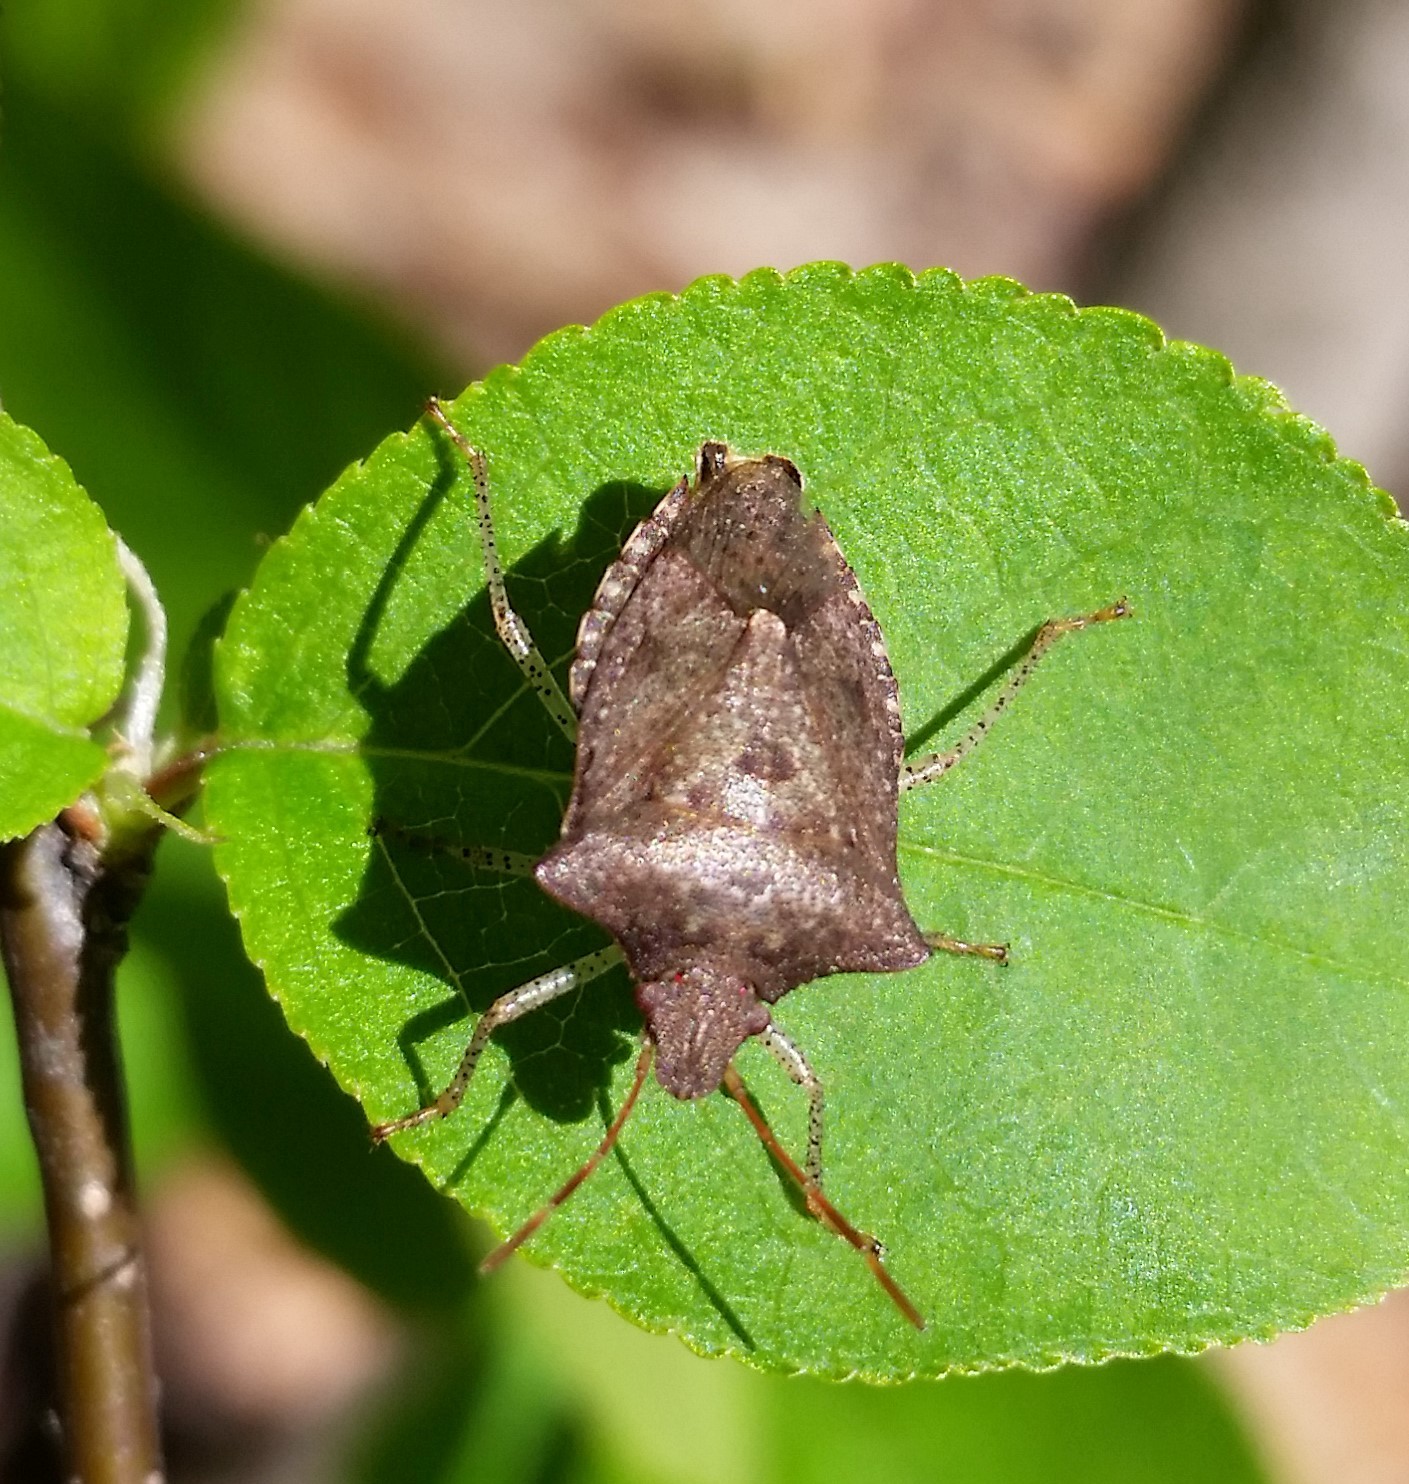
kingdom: Animalia
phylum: Arthropoda
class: Insecta
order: Hemiptera
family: Pentatomidae
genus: Euschistus
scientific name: Euschistus tristigmus
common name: Dusky stink bug
